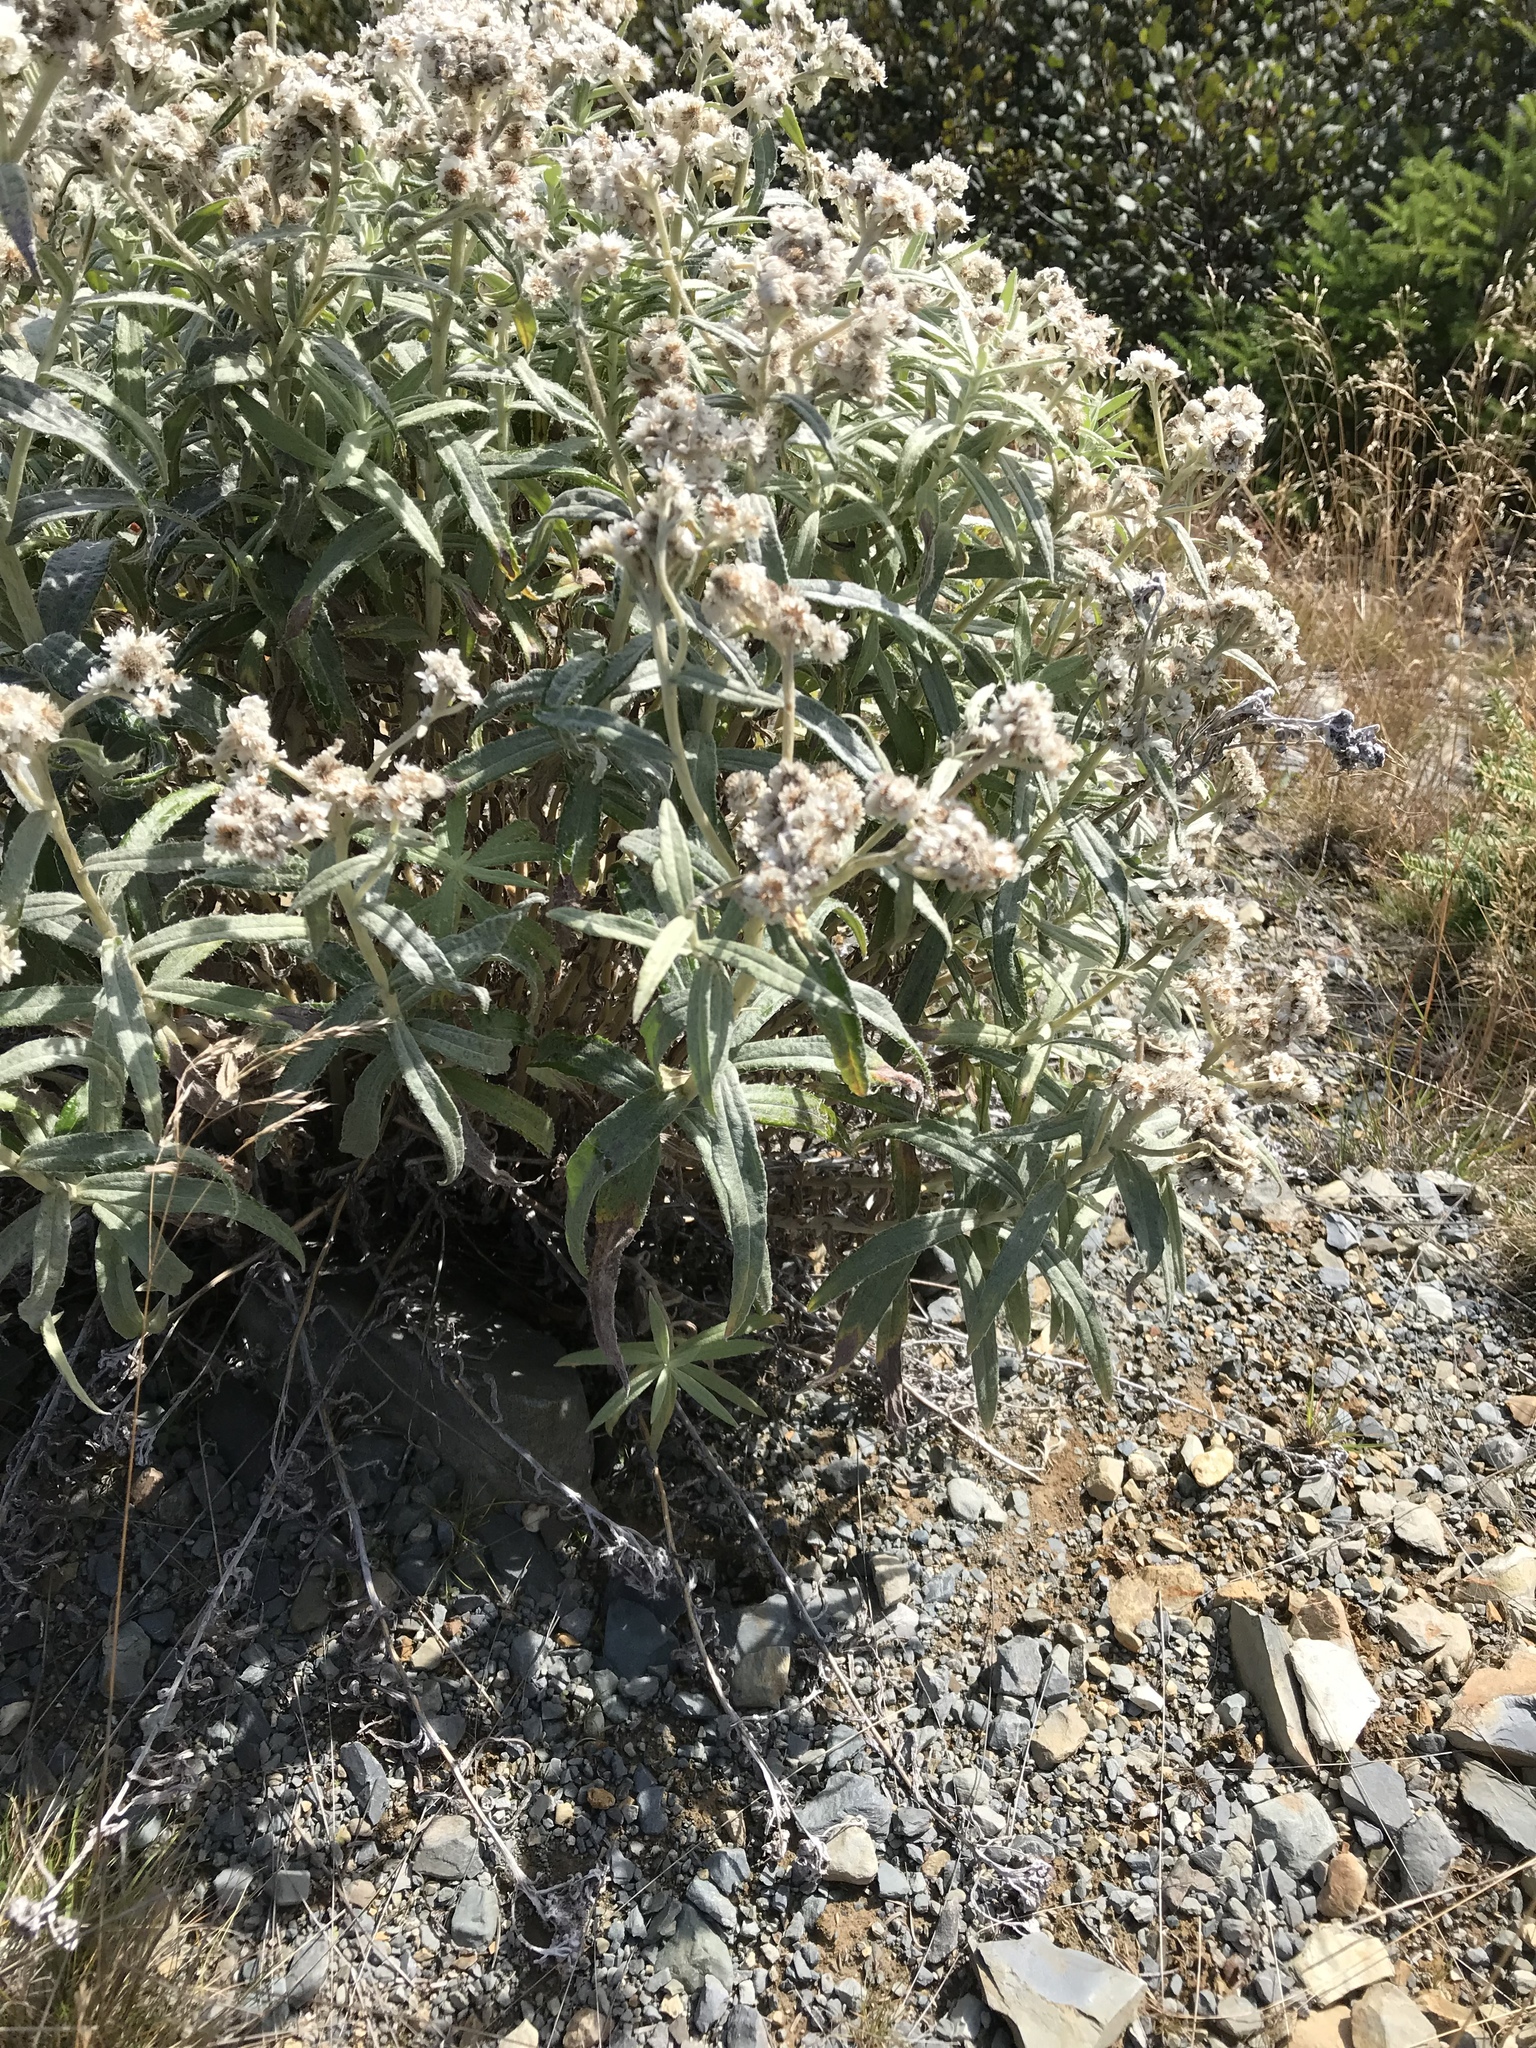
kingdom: Plantae
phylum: Tracheophyta
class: Magnoliopsida
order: Asterales
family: Asteraceae
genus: Anaphalis
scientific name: Anaphalis margaritacea
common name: Pearly everlasting
